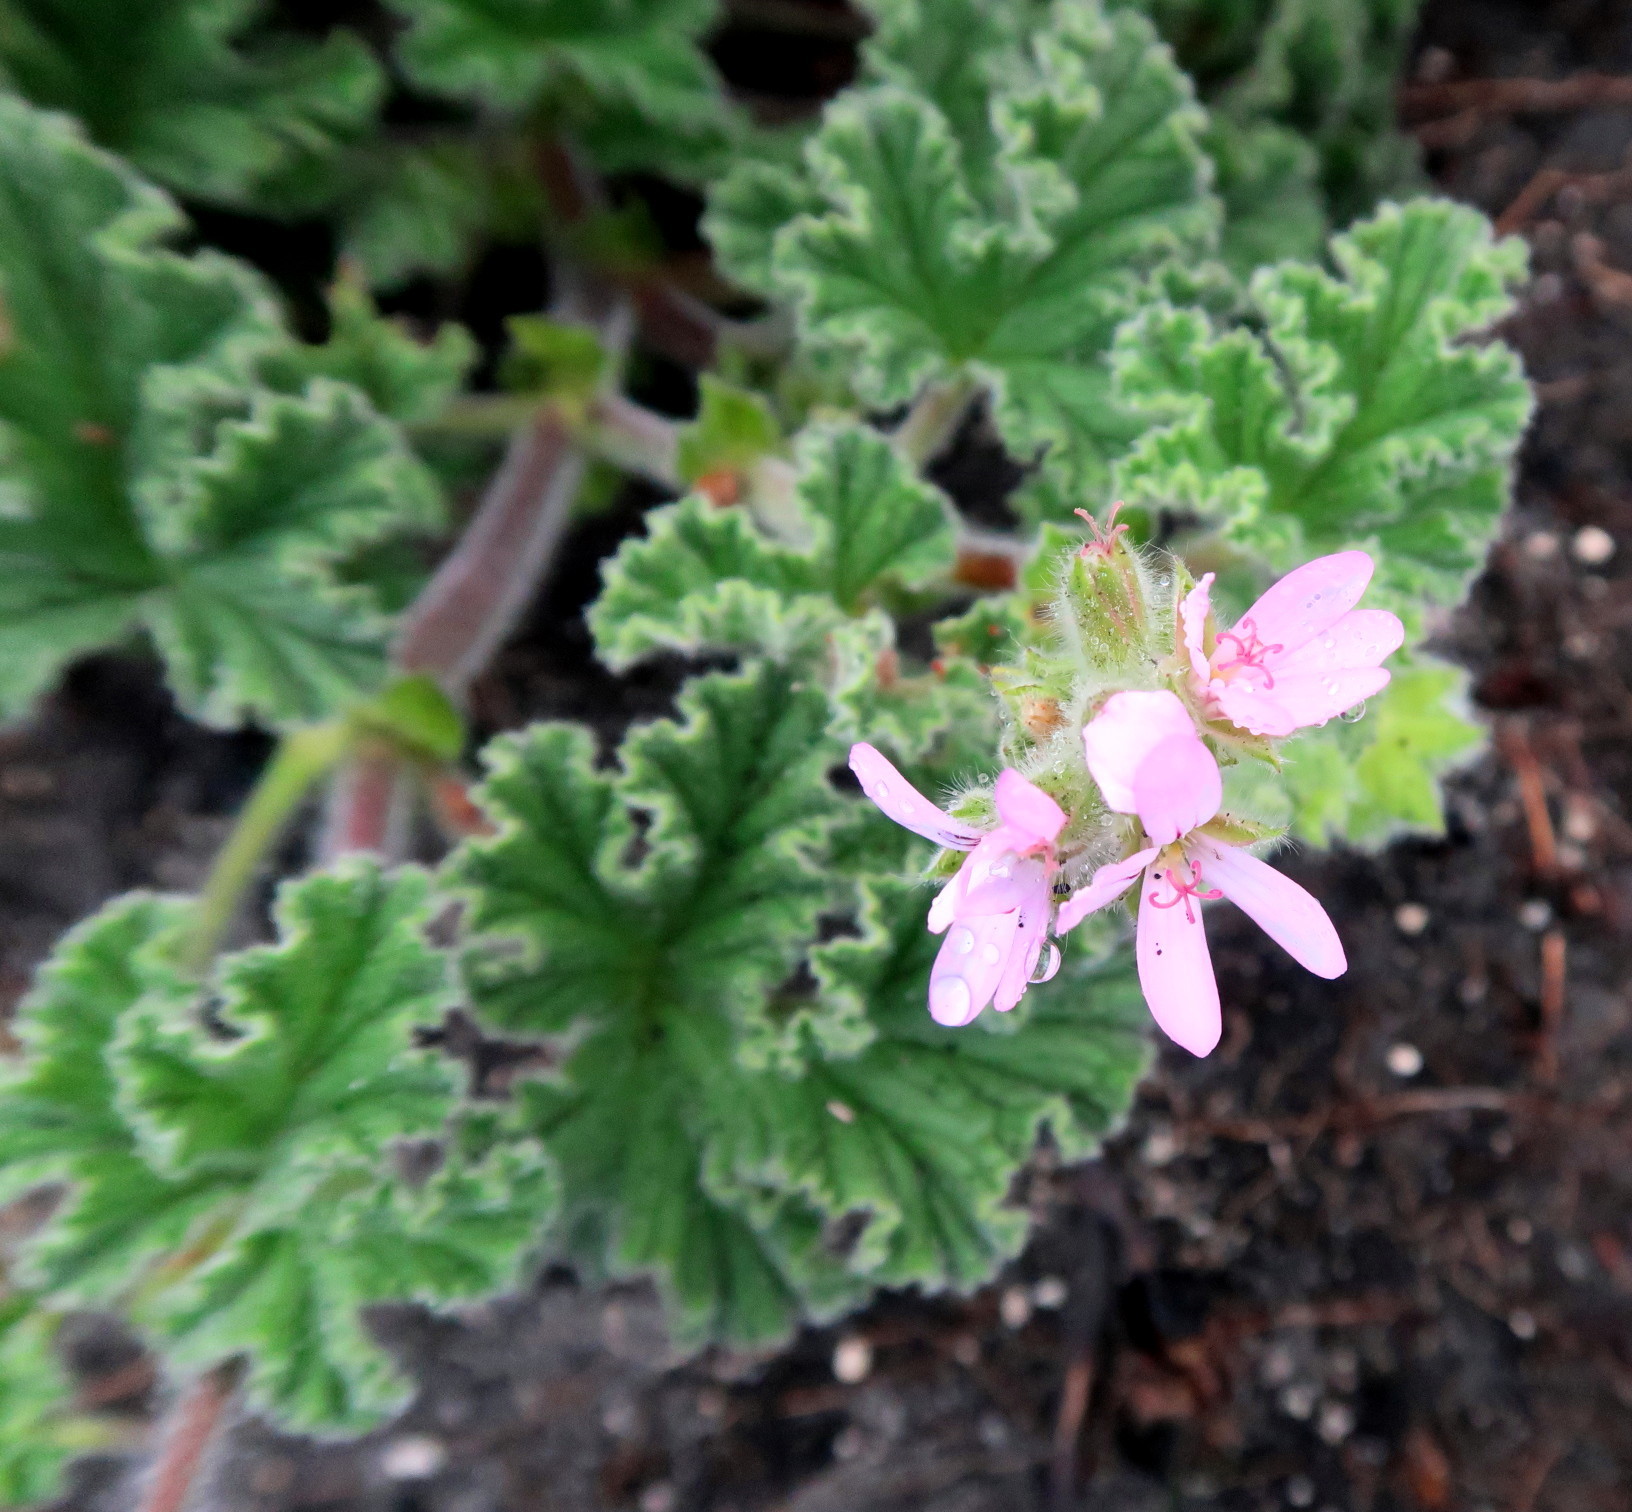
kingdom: Plantae
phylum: Tracheophyta
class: Magnoliopsida
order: Geraniales
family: Geraniaceae
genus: Pelargonium
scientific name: Pelargonium capitatum
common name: Rose scented geranium
